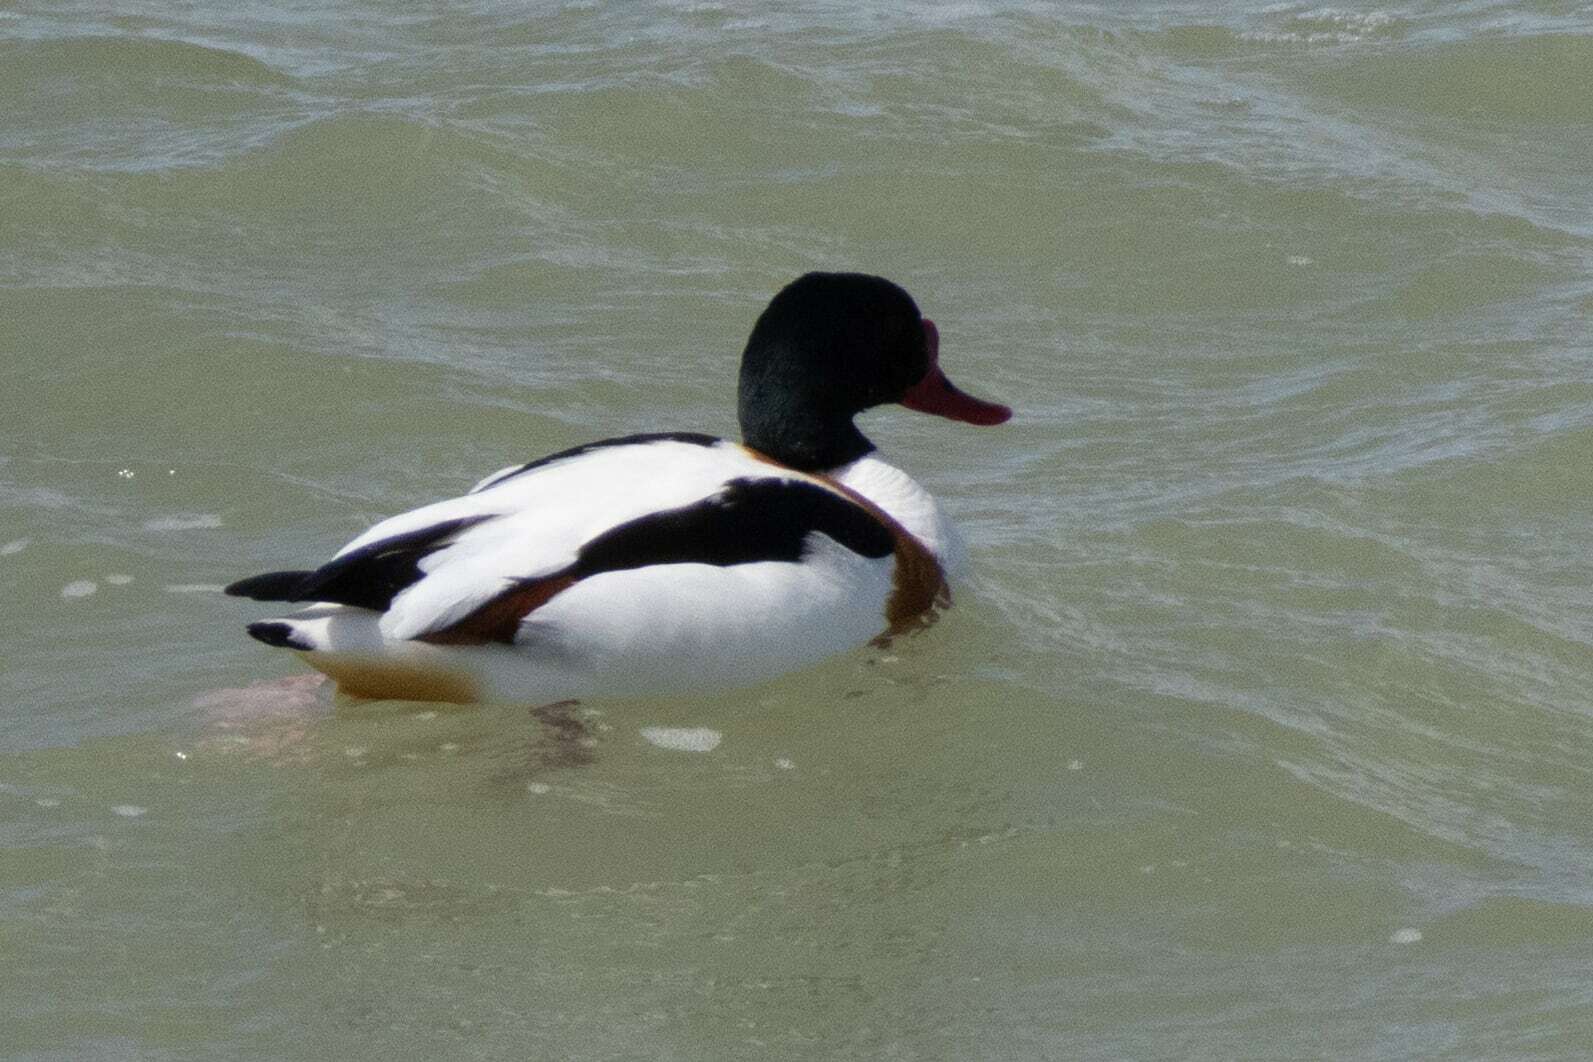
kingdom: Animalia
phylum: Chordata
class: Aves
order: Anseriformes
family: Anatidae
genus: Tadorna
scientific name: Tadorna tadorna
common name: Common shelduck
